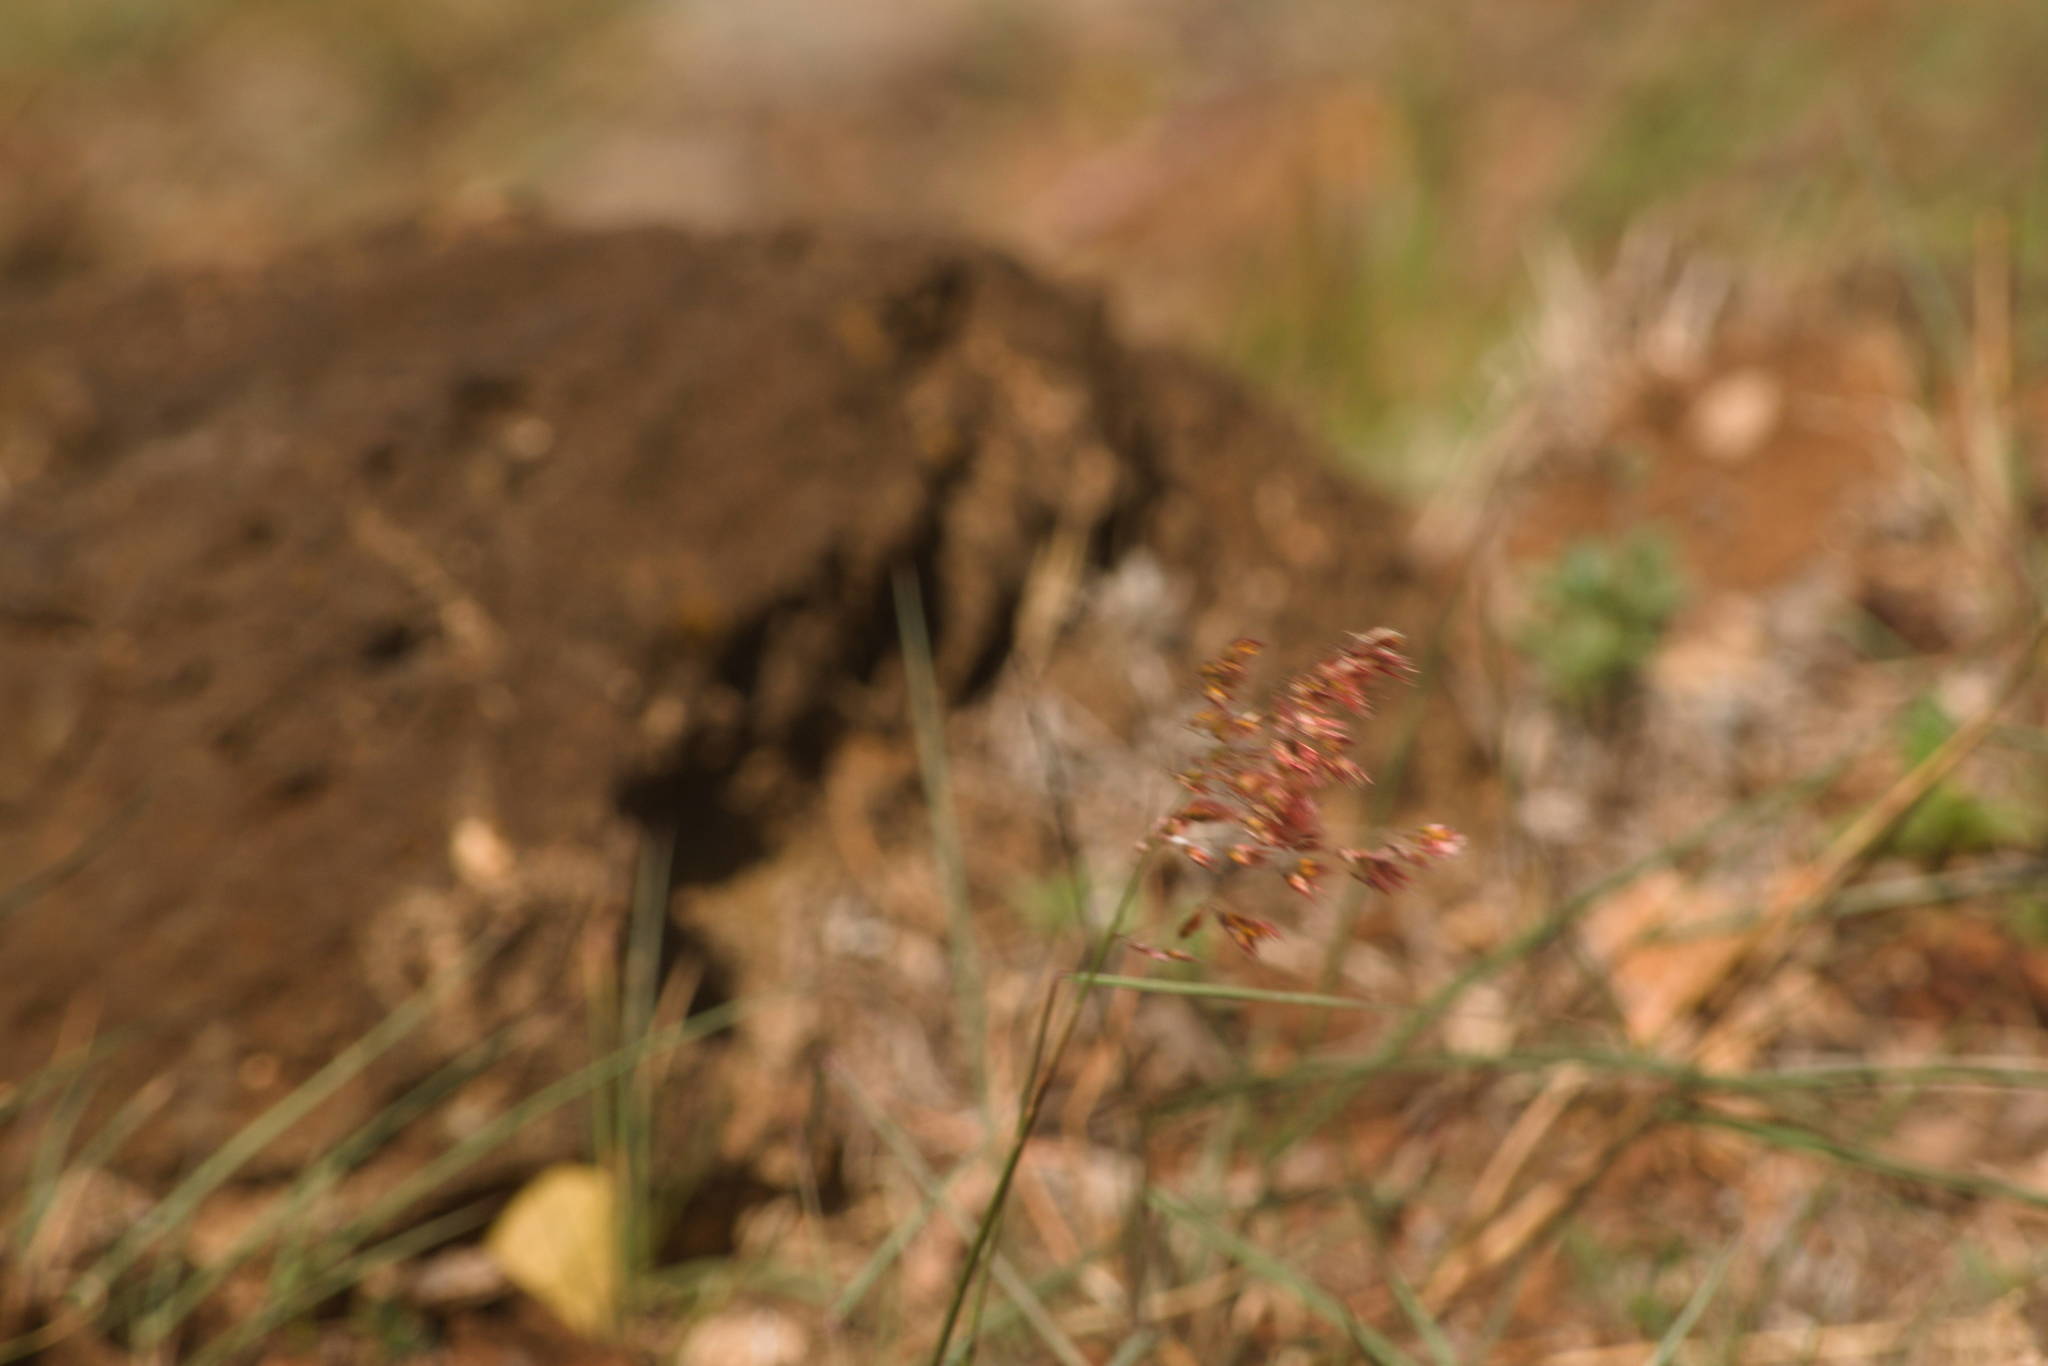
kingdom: Plantae
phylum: Tracheophyta
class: Liliopsida
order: Poales
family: Poaceae
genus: Melinis
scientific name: Melinis repens
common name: Rose natal grass
